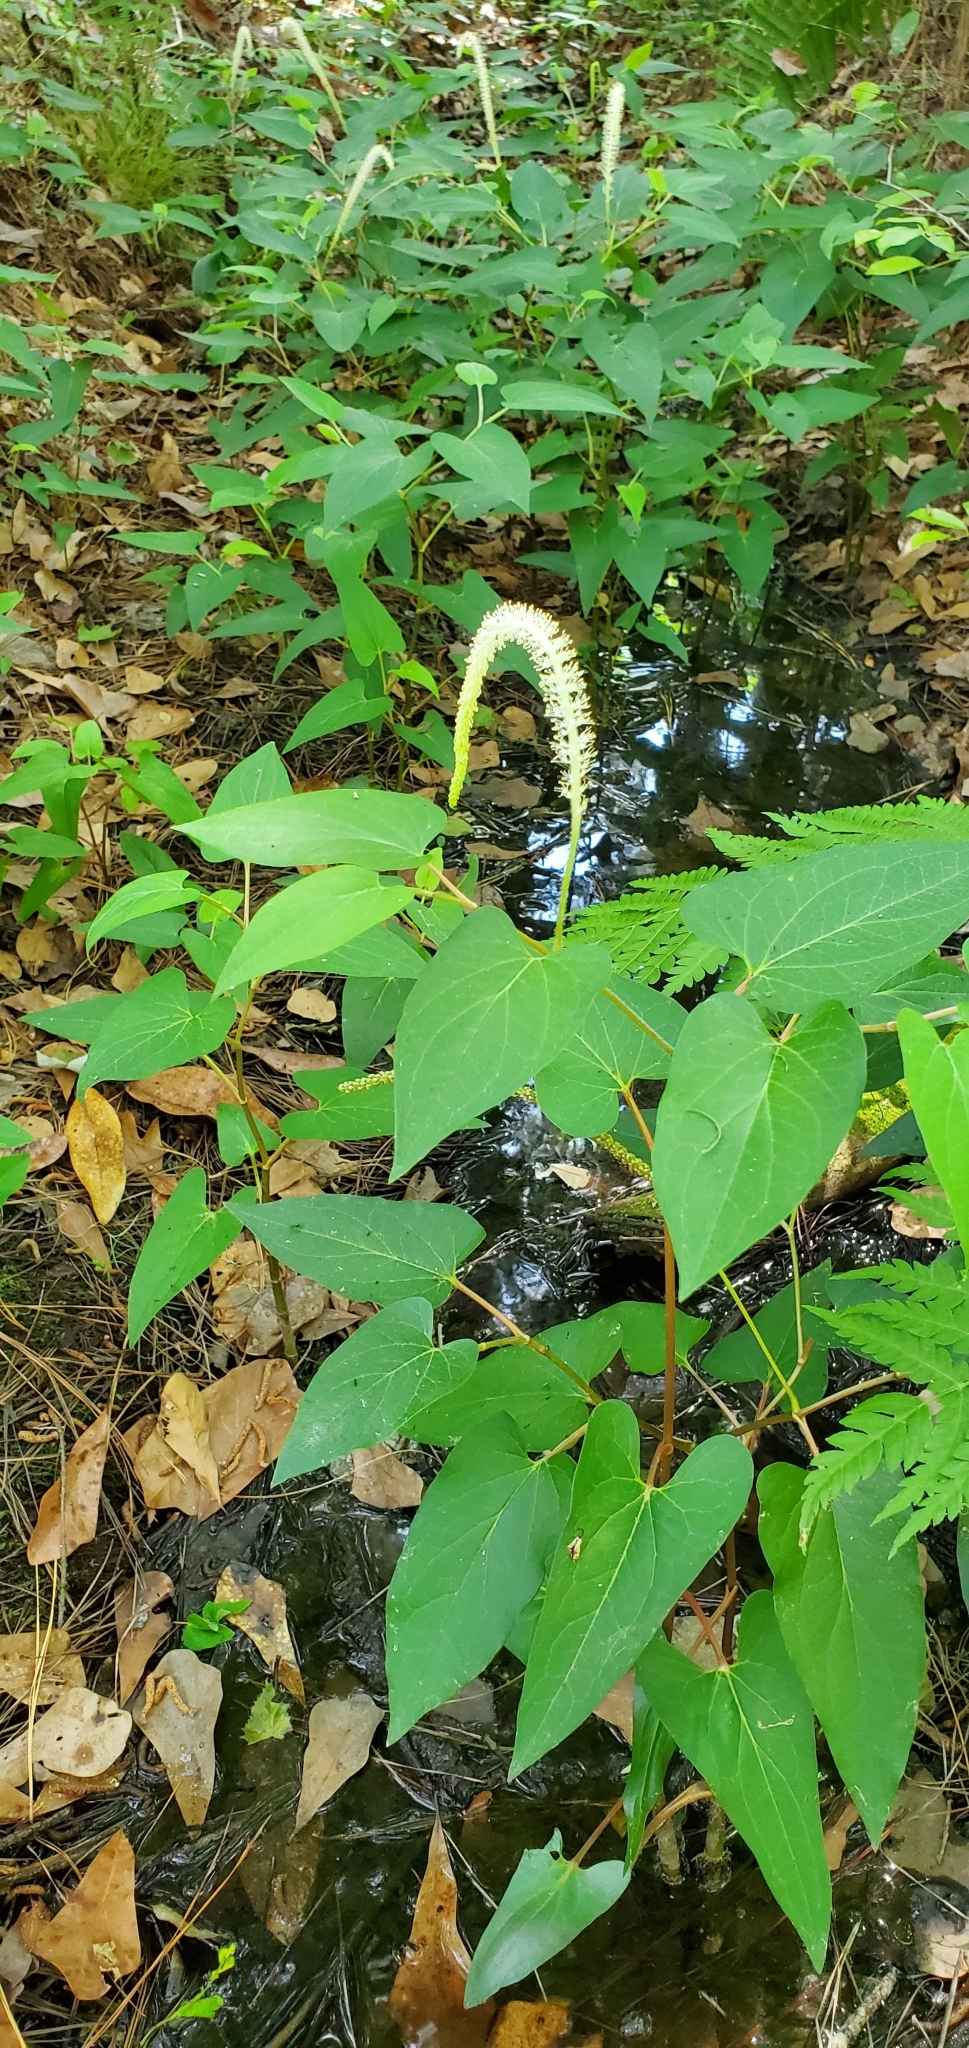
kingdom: Plantae
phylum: Tracheophyta
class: Magnoliopsida
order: Piperales
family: Saururaceae
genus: Saururus
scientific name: Saururus cernuus
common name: Lizard's-tail
